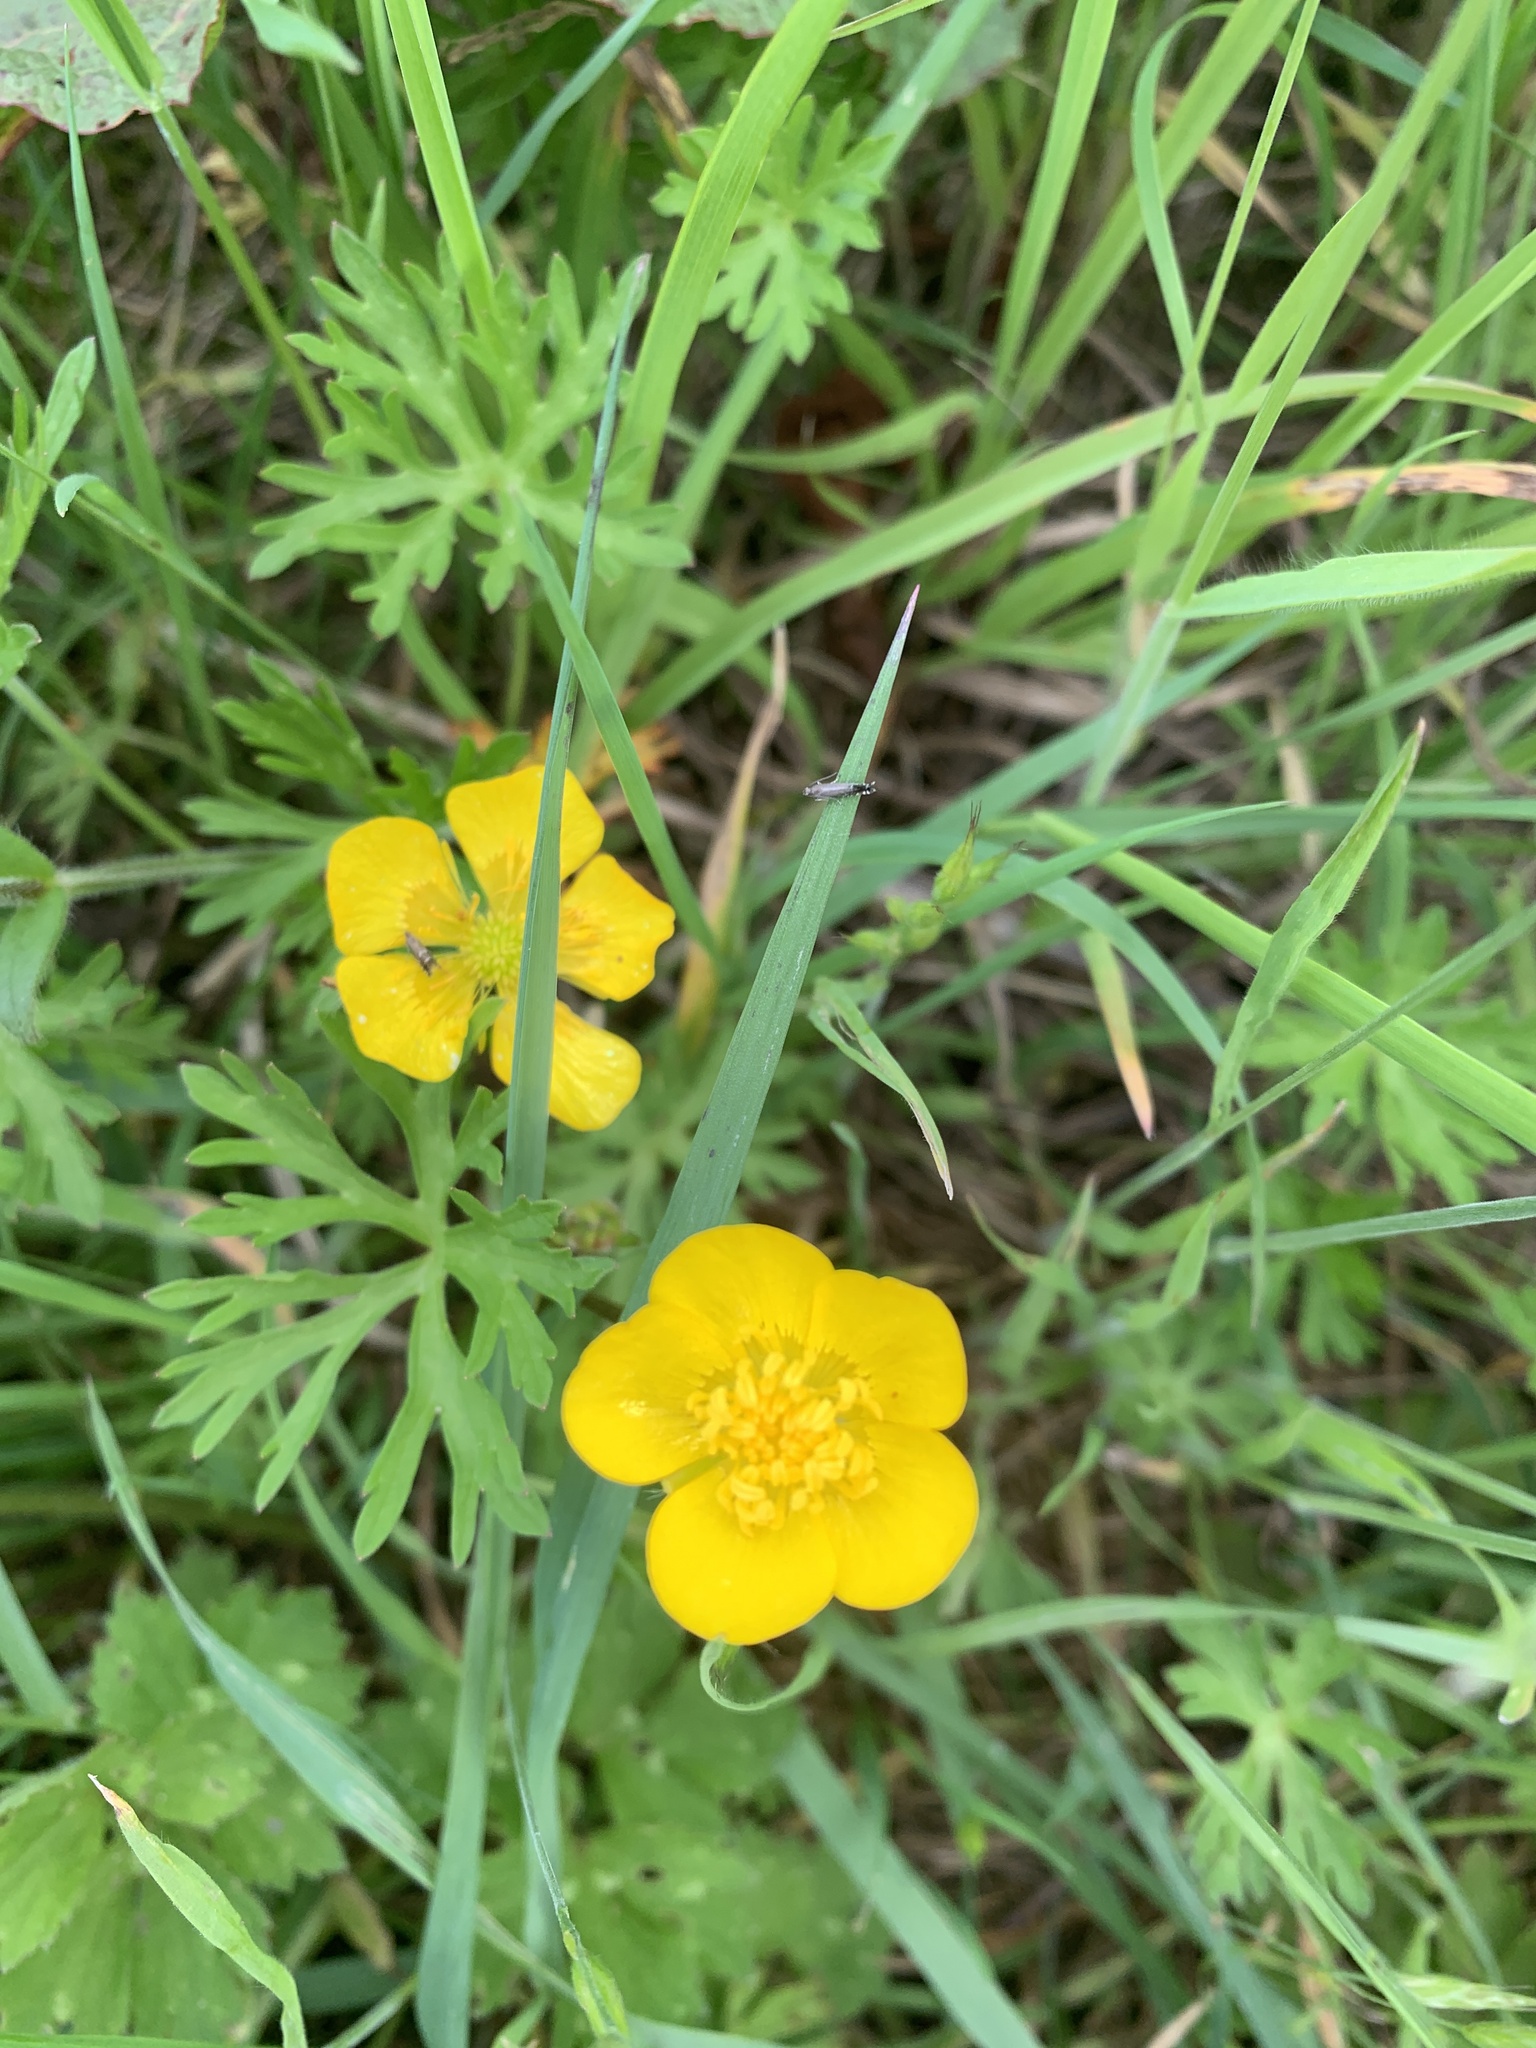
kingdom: Plantae
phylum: Tracheophyta
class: Magnoliopsida
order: Ranunculales
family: Ranunculaceae
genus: Ranunculus
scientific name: Ranunculus acris
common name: Meadow buttercup
